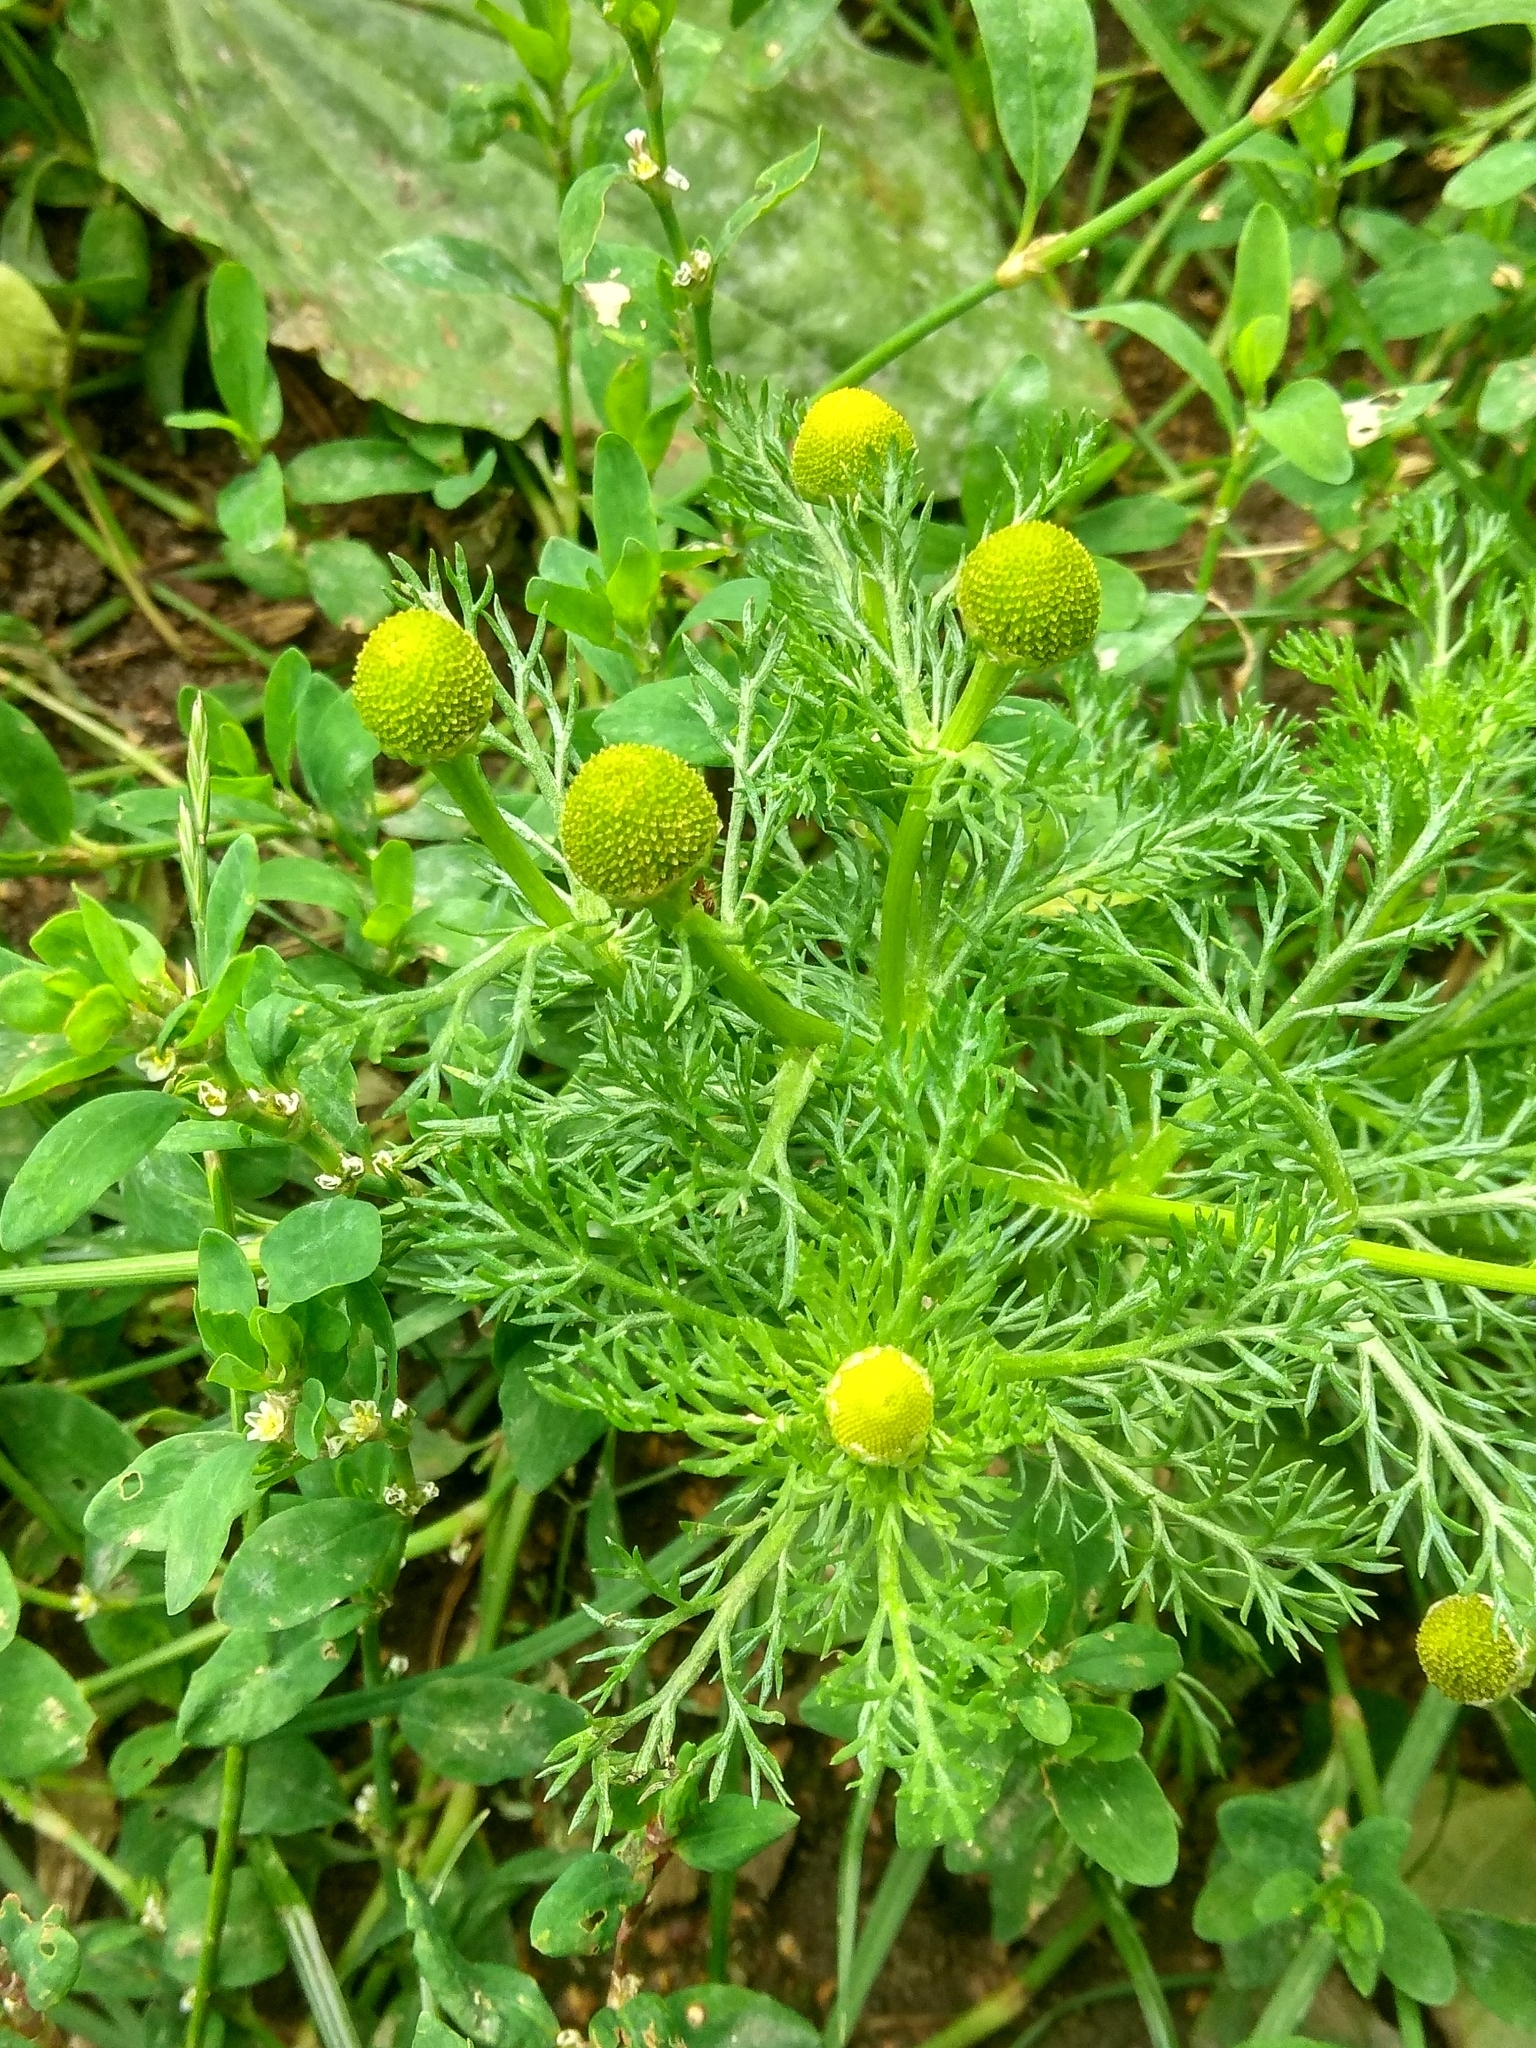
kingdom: Plantae
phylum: Tracheophyta
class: Magnoliopsida
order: Asterales
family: Asteraceae
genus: Matricaria
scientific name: Matricaria discoidea
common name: Disc mayweed
